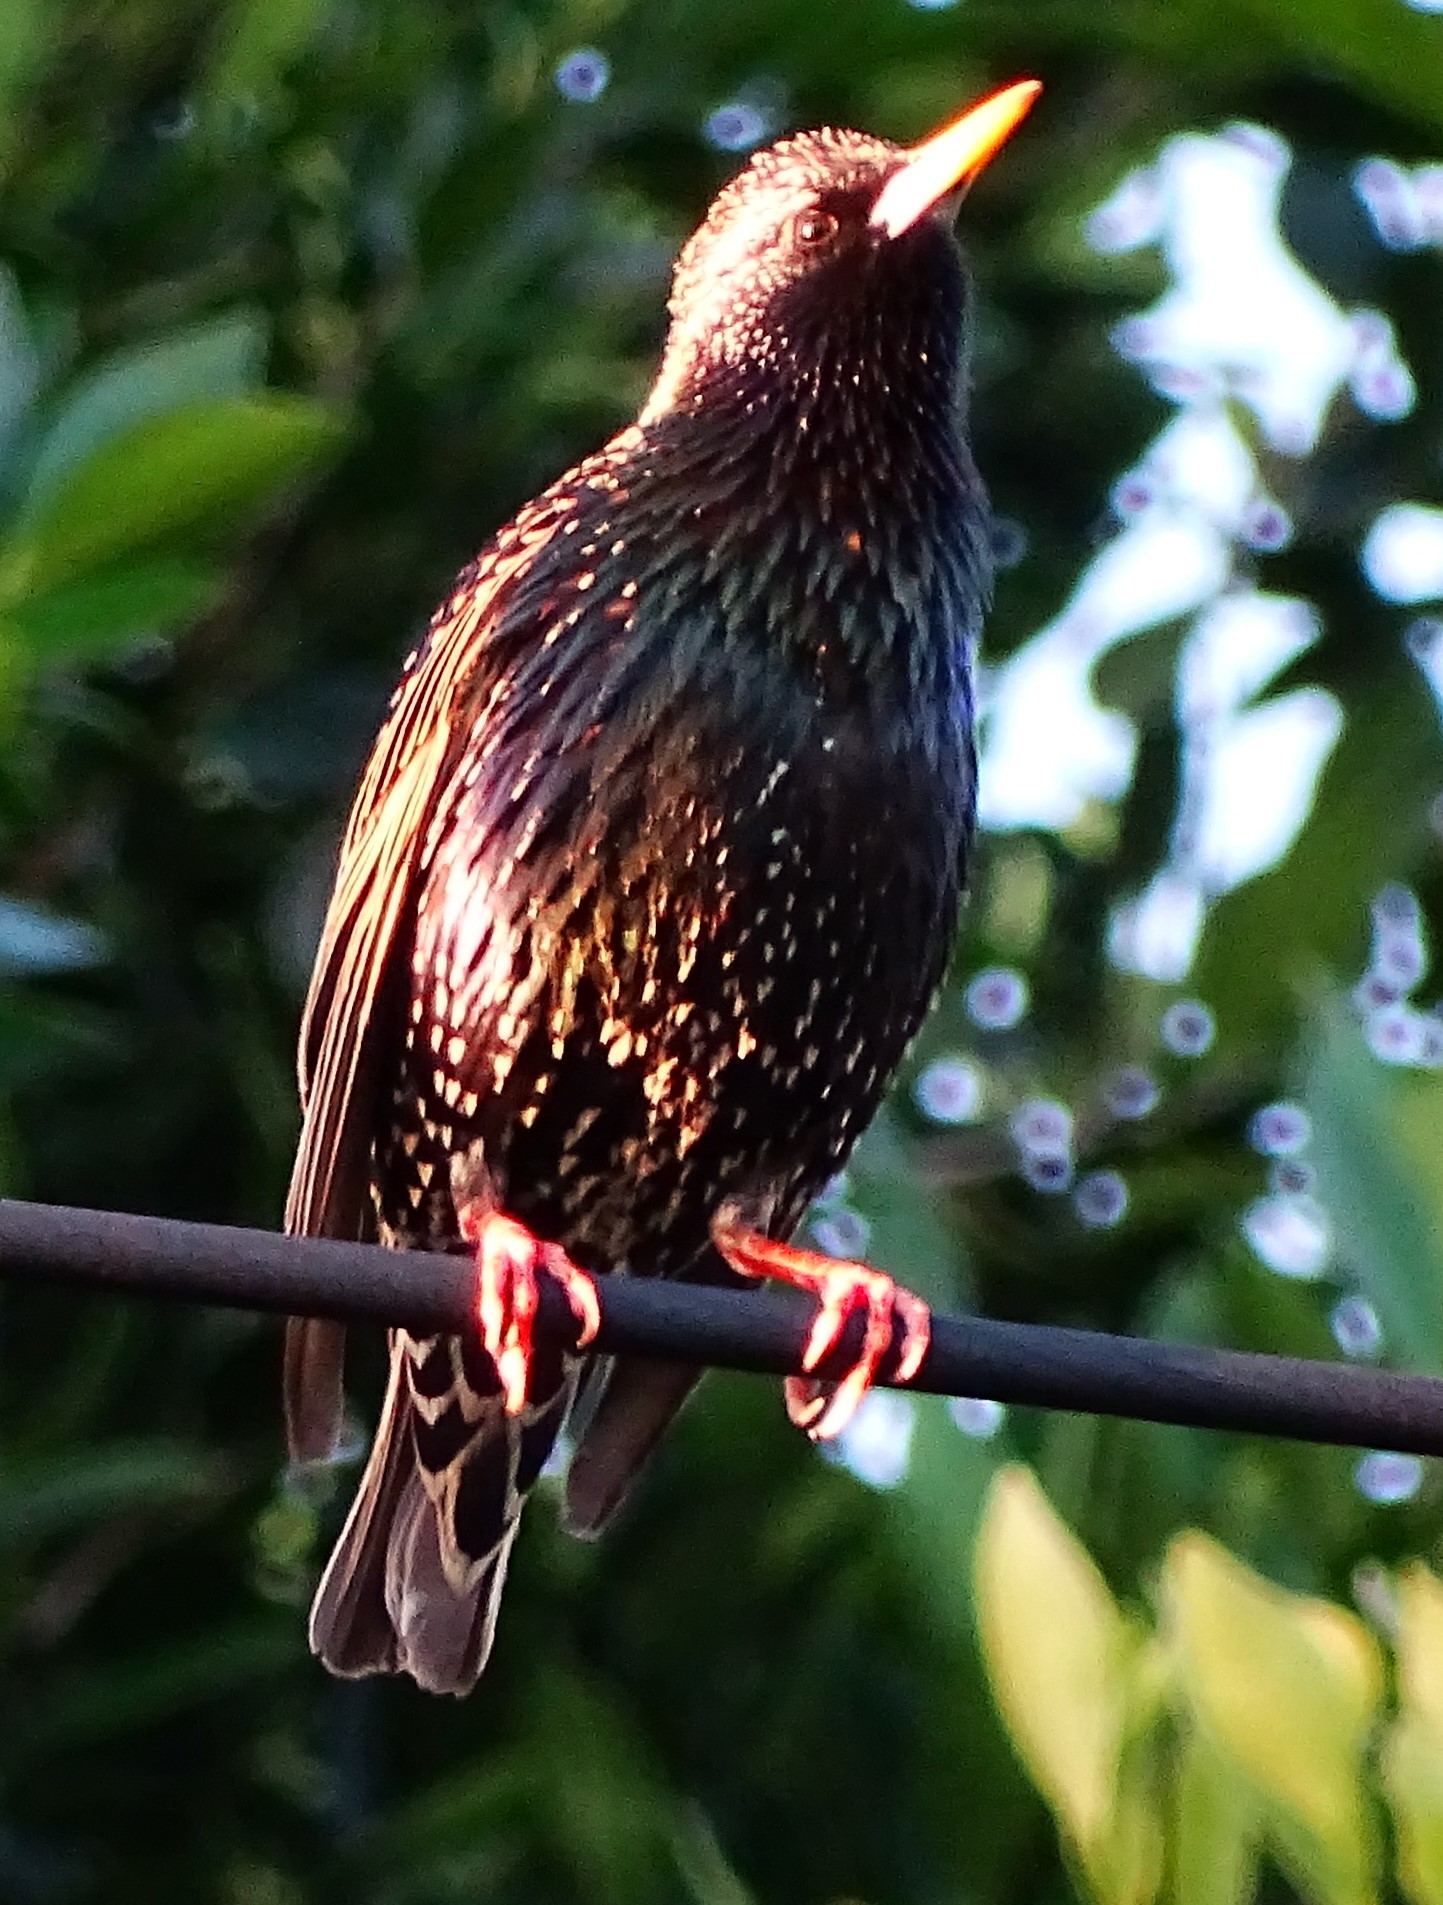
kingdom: Animalia
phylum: Chordata
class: Aves
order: Passeriformes
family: Sturnidae
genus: Sturnus
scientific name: Sturnus vulgaris
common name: Common starling
